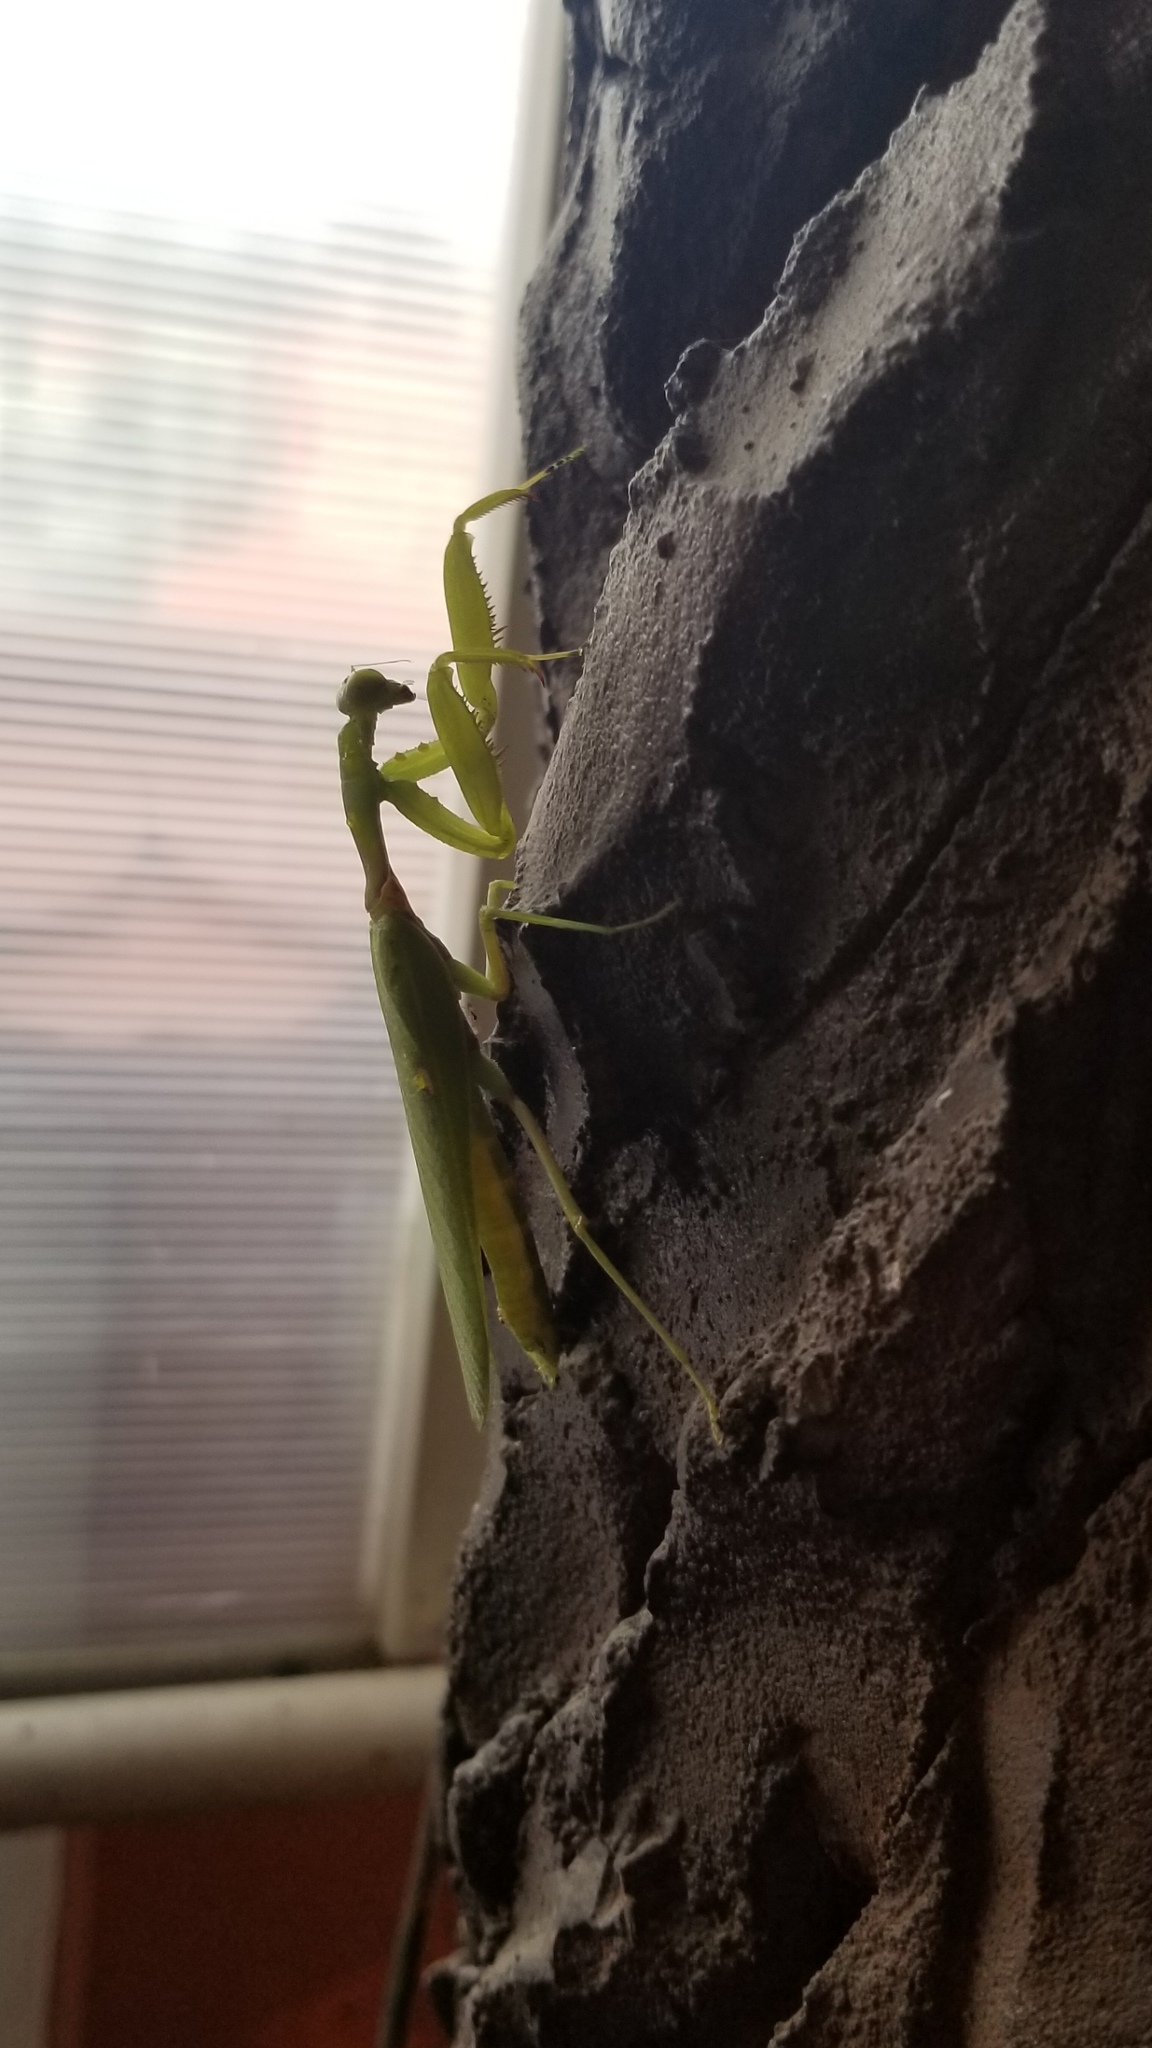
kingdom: Animalia
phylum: Arthropoda
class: Insecta
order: Mantodea
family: Mantidae
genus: Hierodula
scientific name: Hierodula patellifera
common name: Asian mantis
